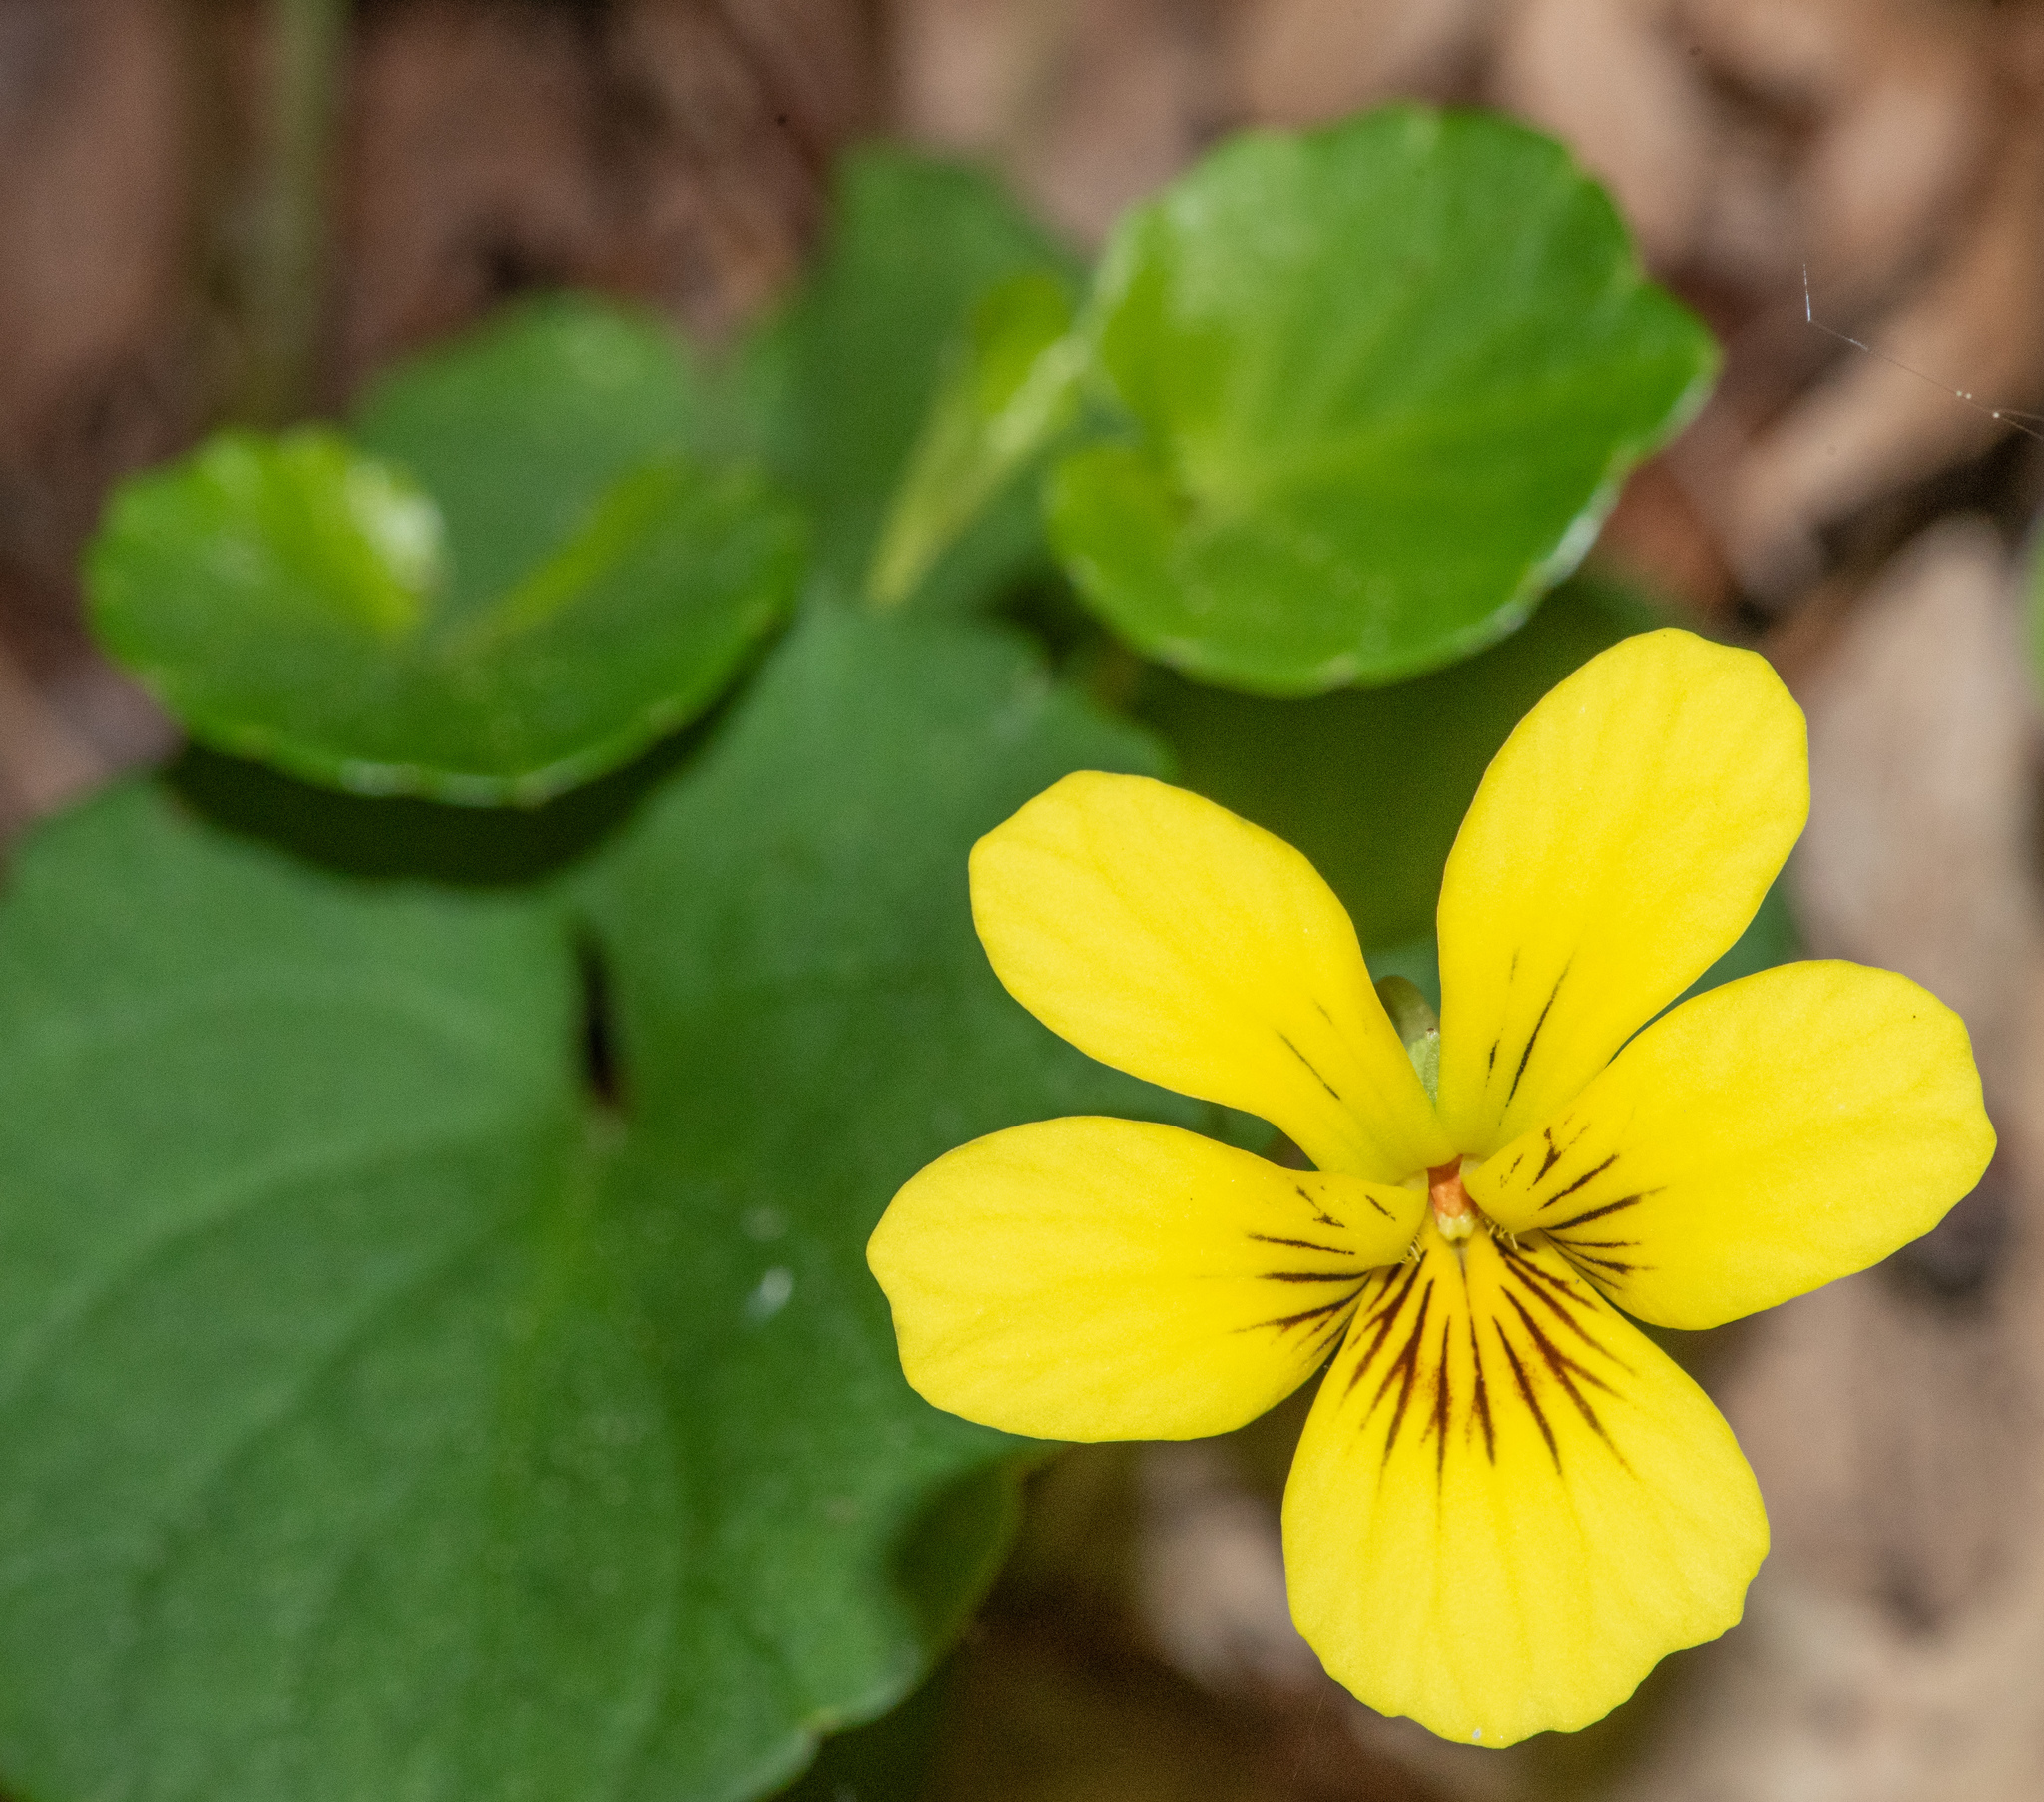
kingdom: Plantae
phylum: Tracheophyta
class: Magnoliopsida
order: Malpighiales
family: Violaceae
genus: Viola
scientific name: Viola sempervirens
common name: Evergreen violet
